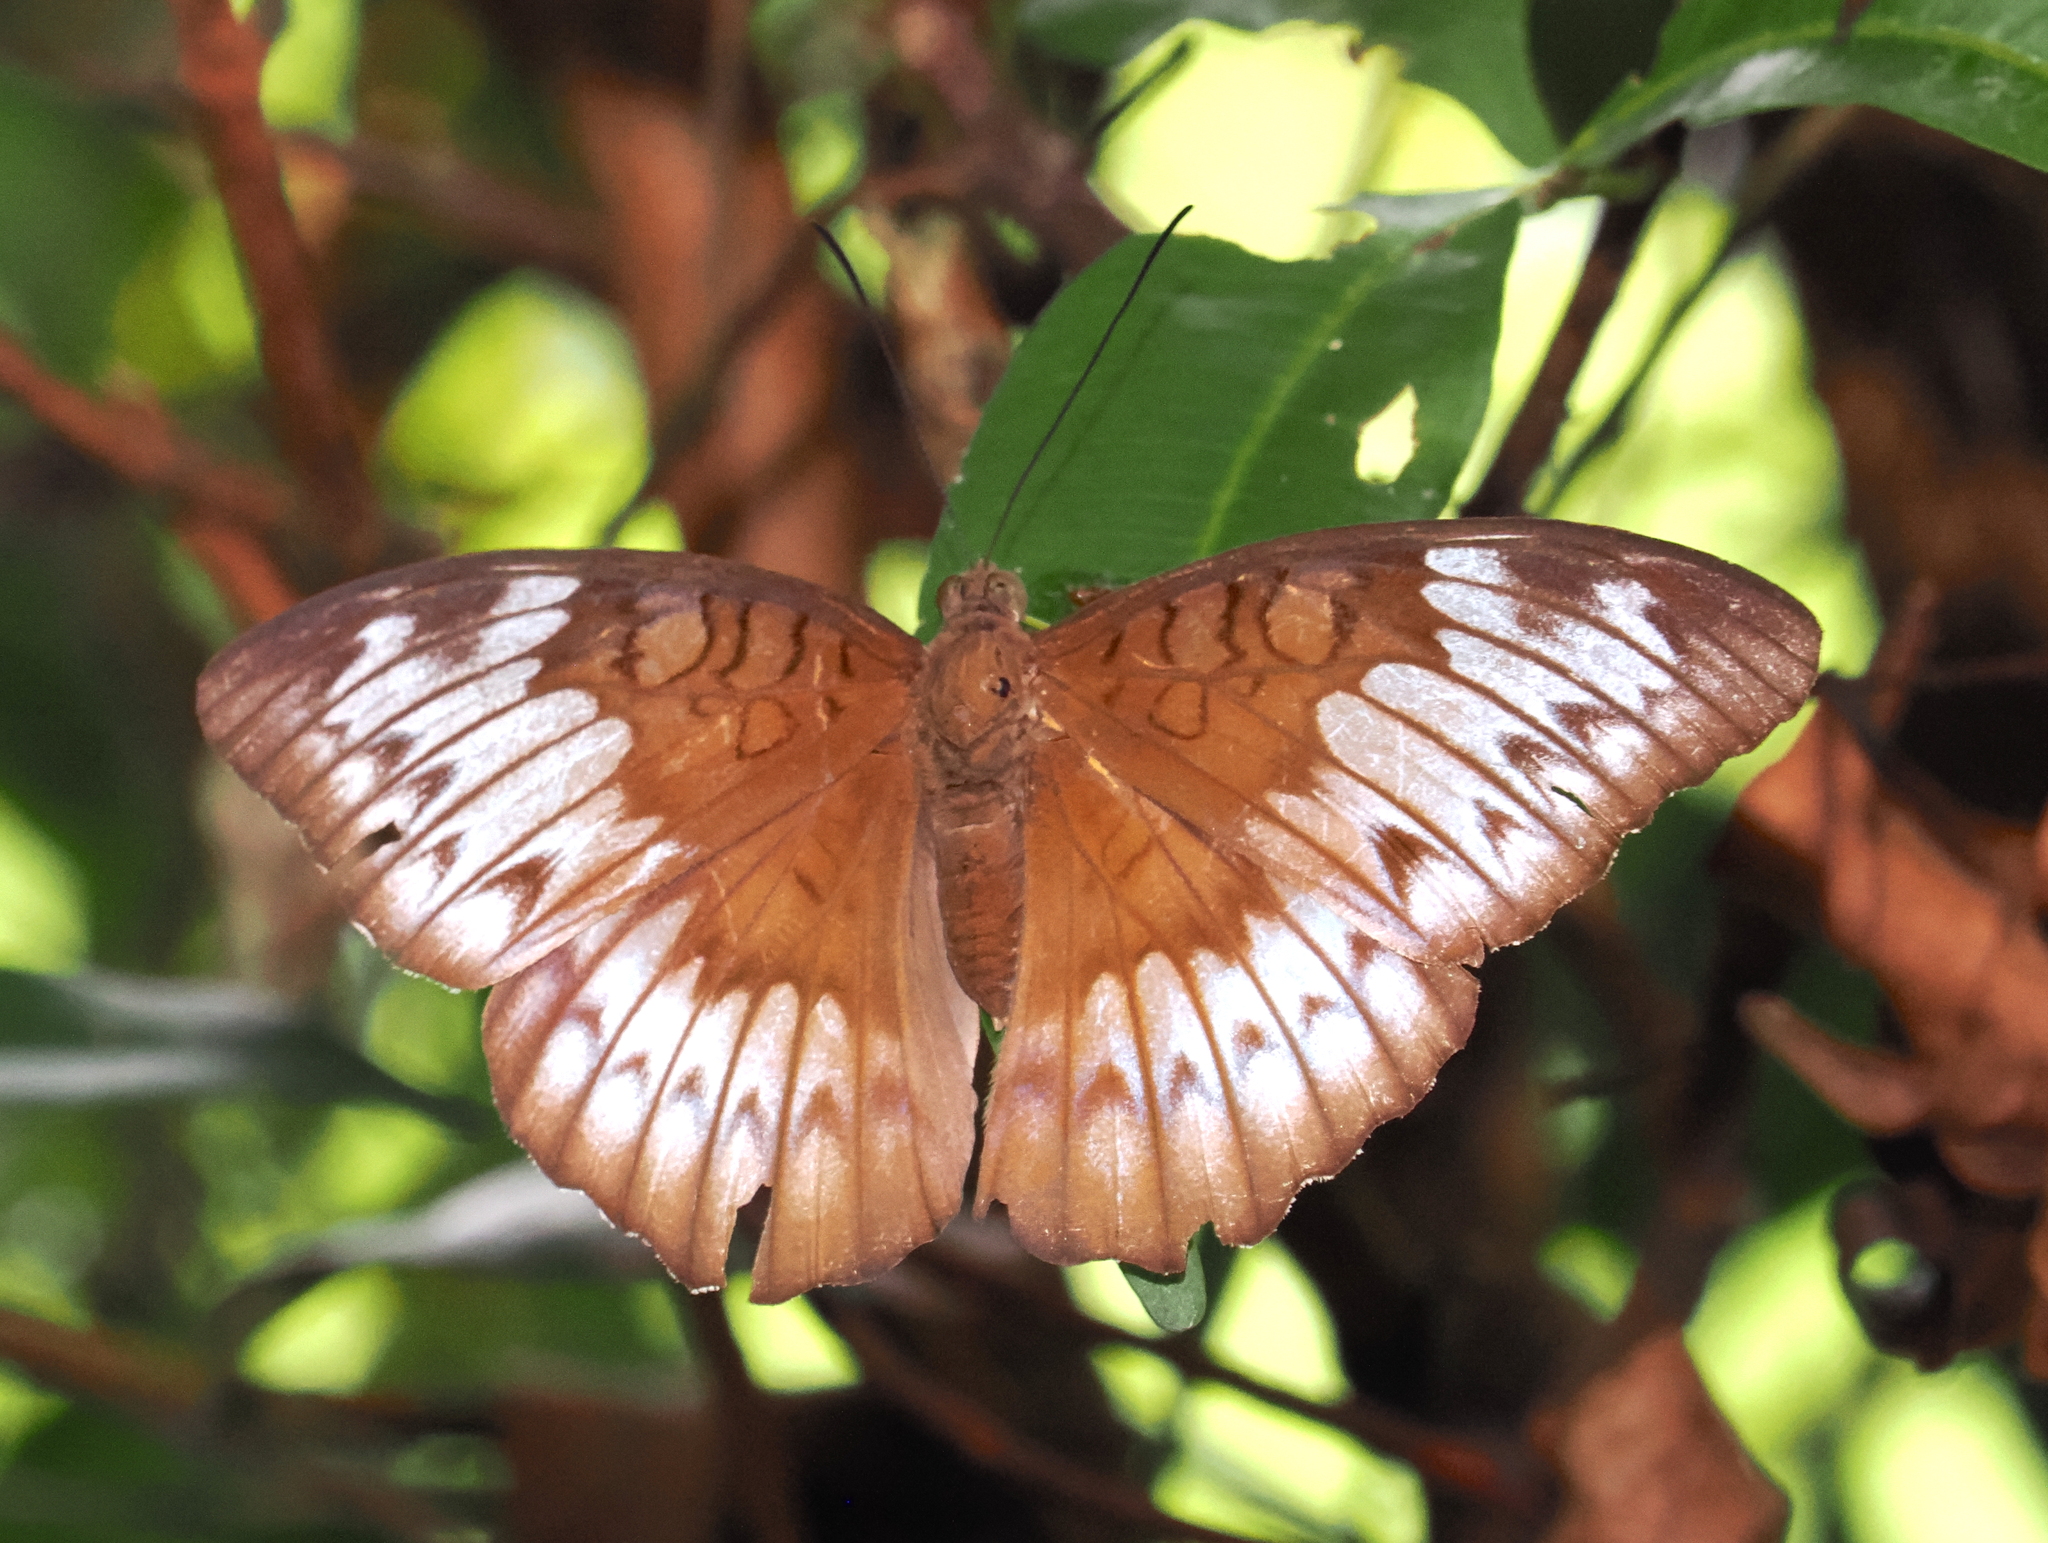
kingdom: Animalia
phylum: Arthropoda
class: Insecta
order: Lepidoptera
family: Nymphalidae
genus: Tanaecia
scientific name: Tanaecia iapis
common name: Horsfield's baron
